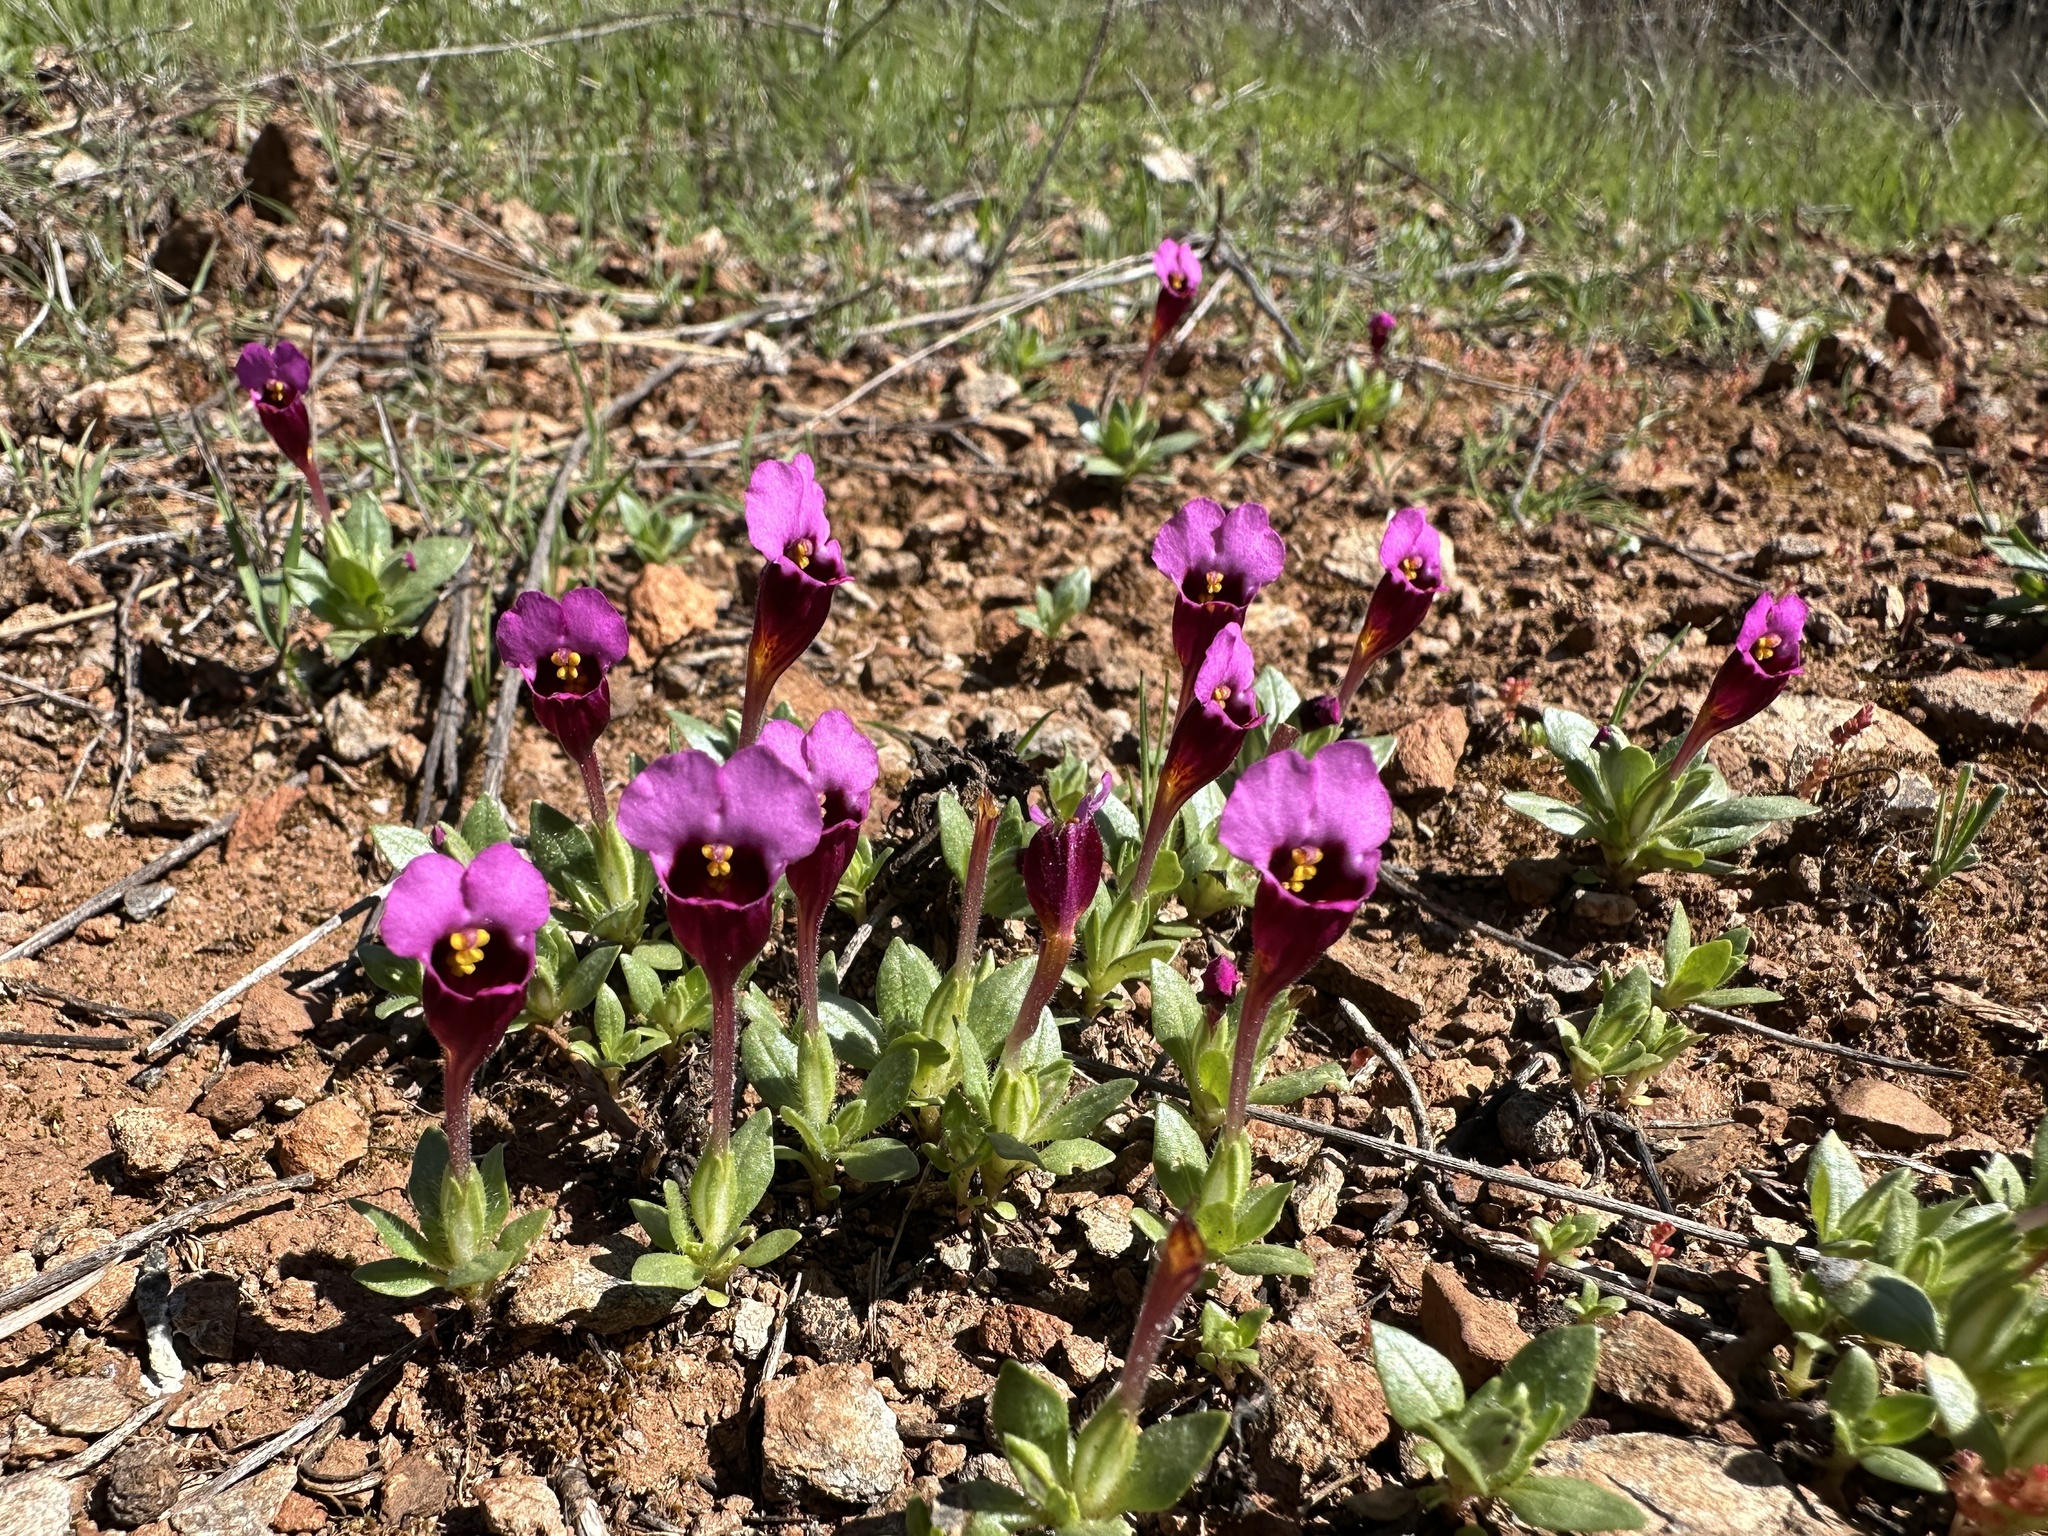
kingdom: Plantae
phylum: Tracheophyta
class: Magnoliopsida
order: Lamiales
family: Phrymaceae
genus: Diplacus
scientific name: Diplacus douglasii
